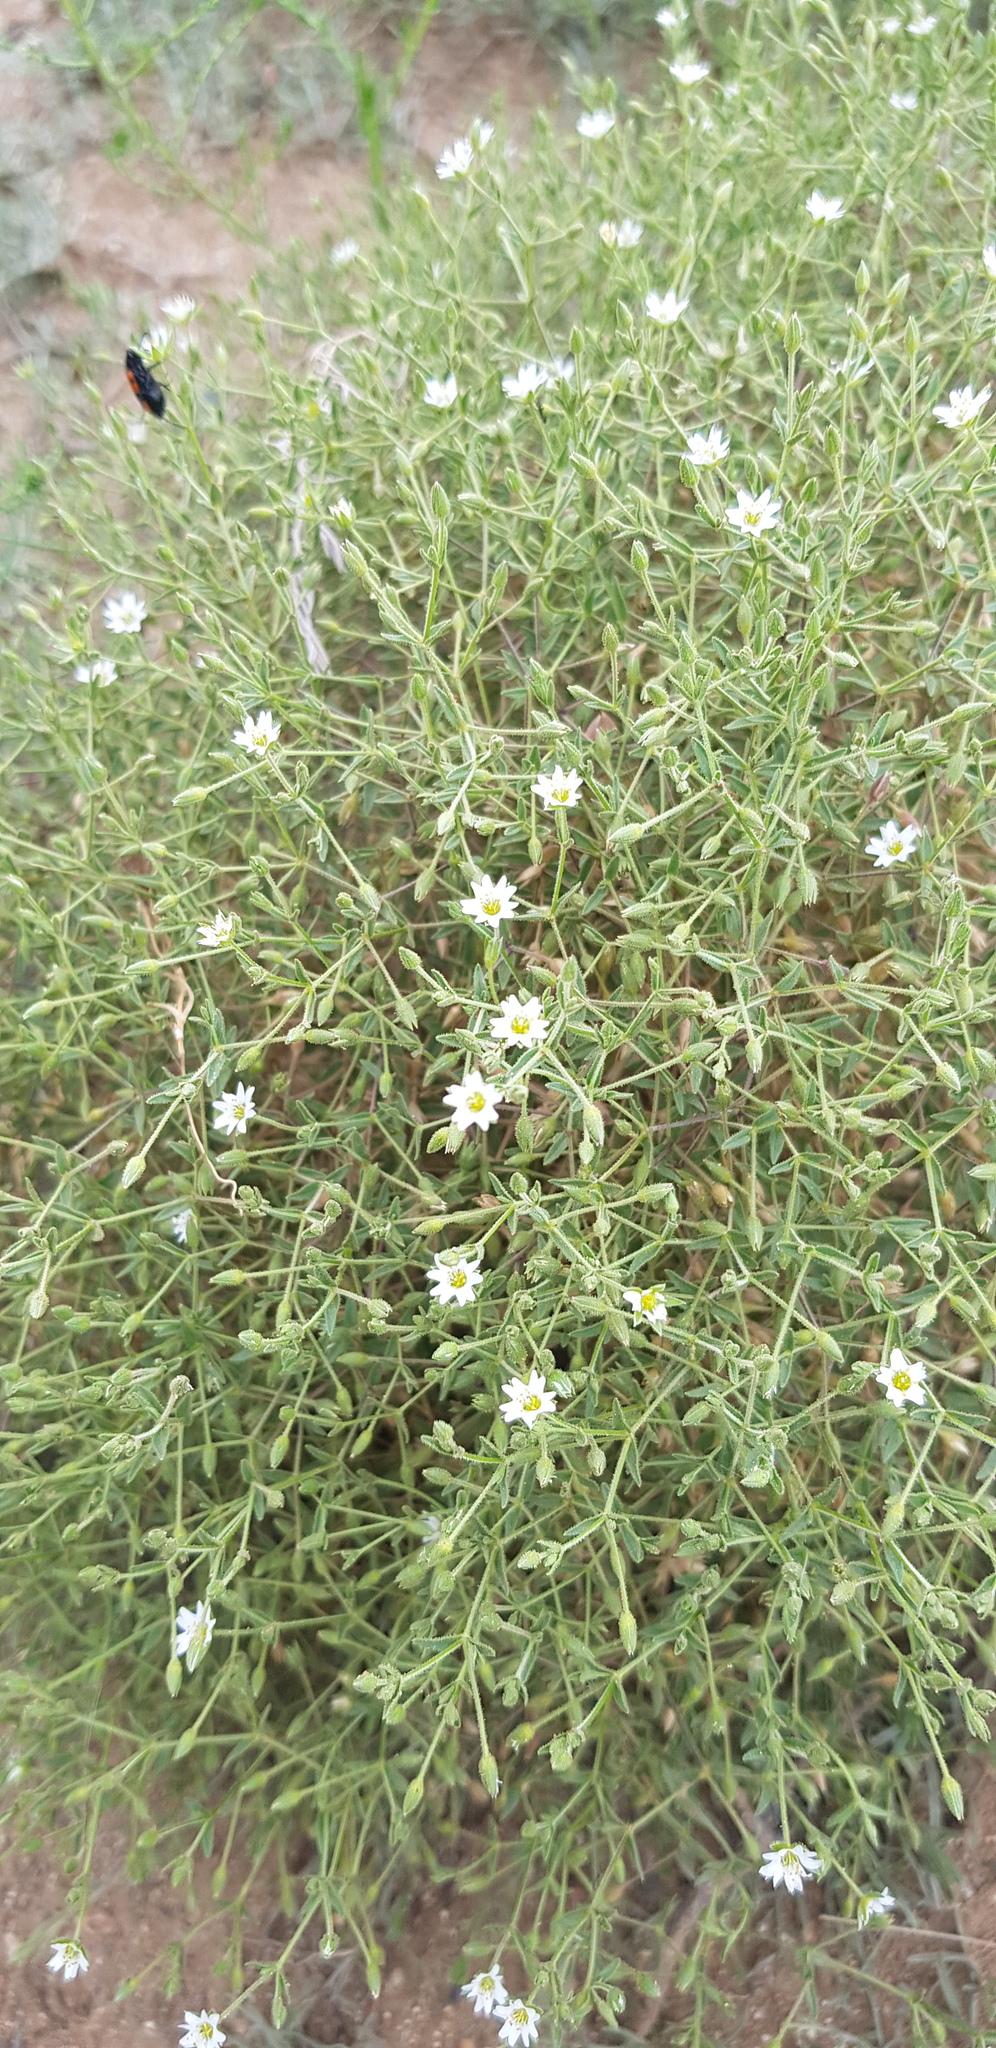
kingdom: Plantae
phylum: Tracheophyta
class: Magnoliopsida
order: Caryophyllales
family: Caryophyllaceae
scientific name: Caryophyllaceae
